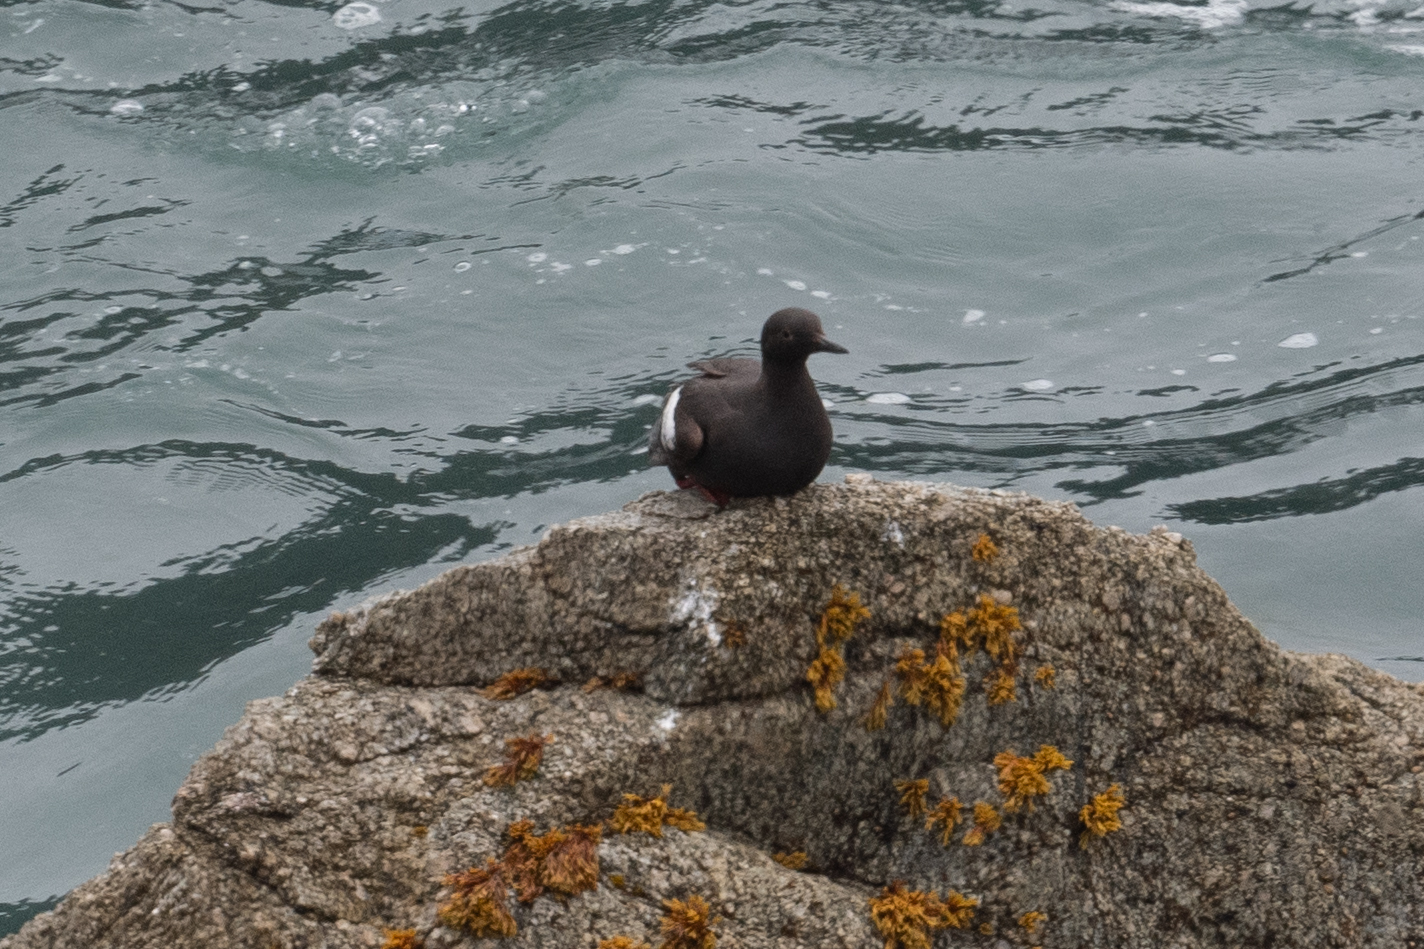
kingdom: Animalia
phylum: Chordata
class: Aves
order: Charadriiformes
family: Alcidae
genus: Cepphus
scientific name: Cepphus columba
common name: Pigeon guillemot
